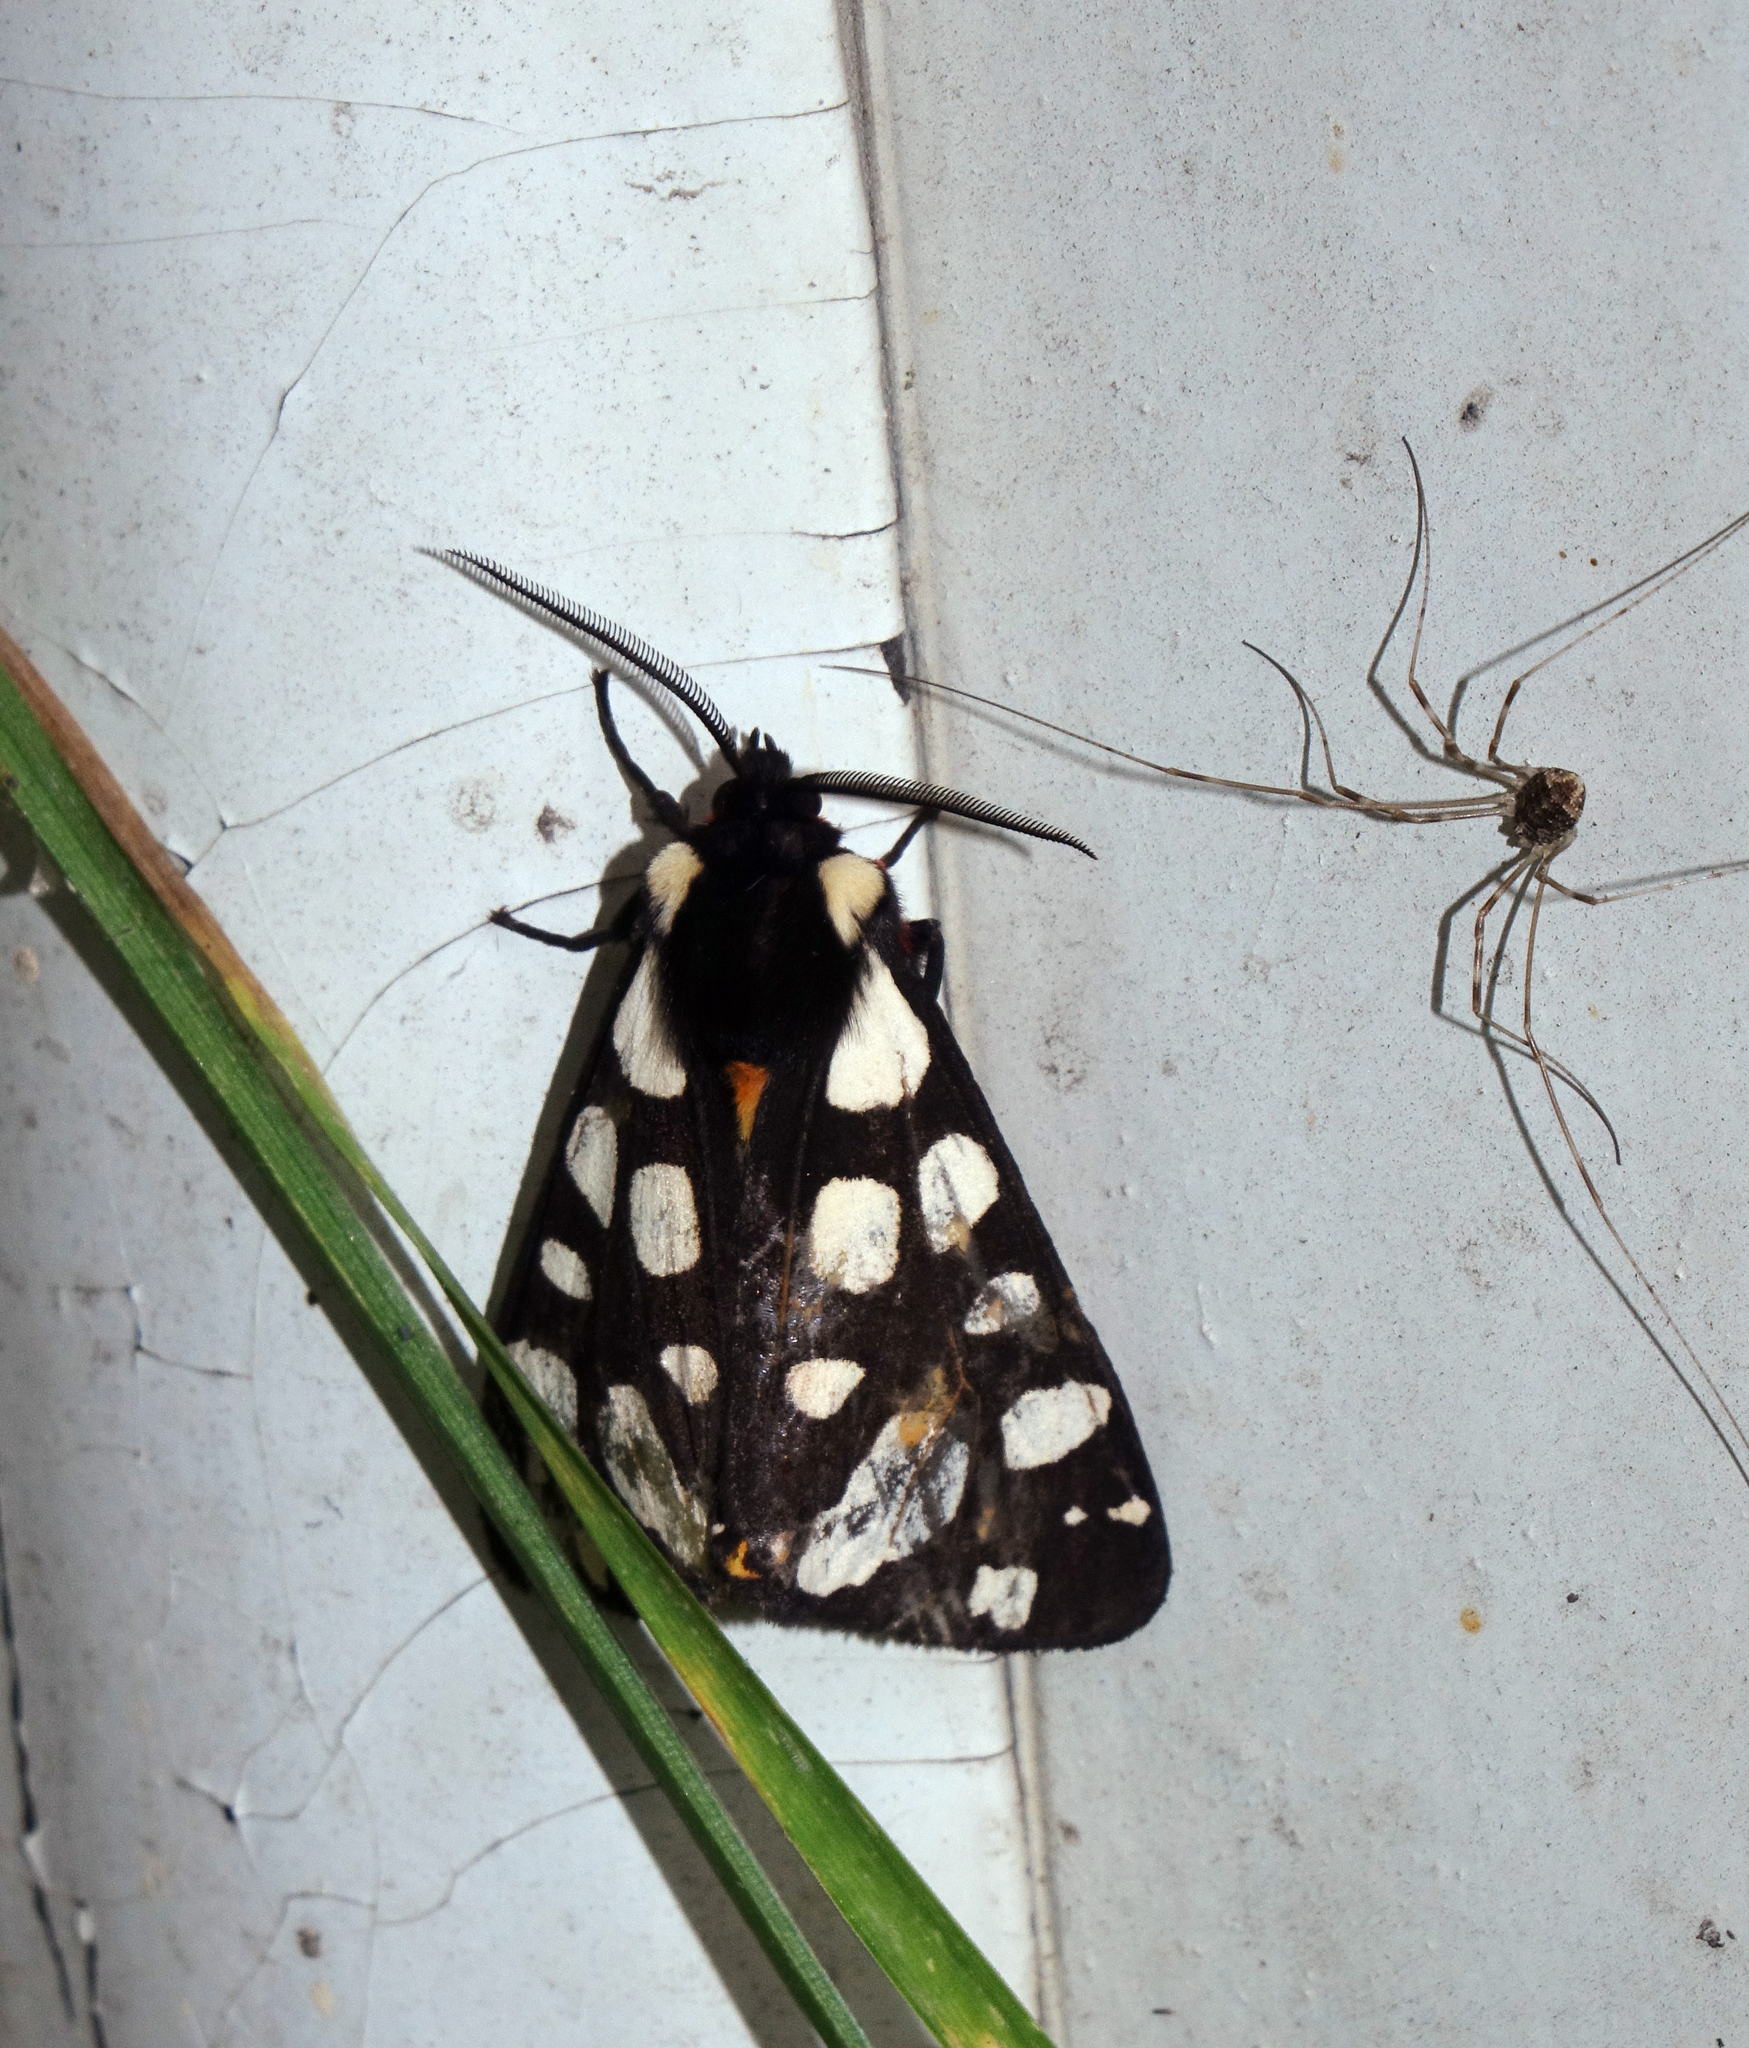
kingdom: Animalia
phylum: Arthropoda
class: Insecta
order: Lepidoptera
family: Erebidae
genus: Epicallia
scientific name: Epicallia villica
